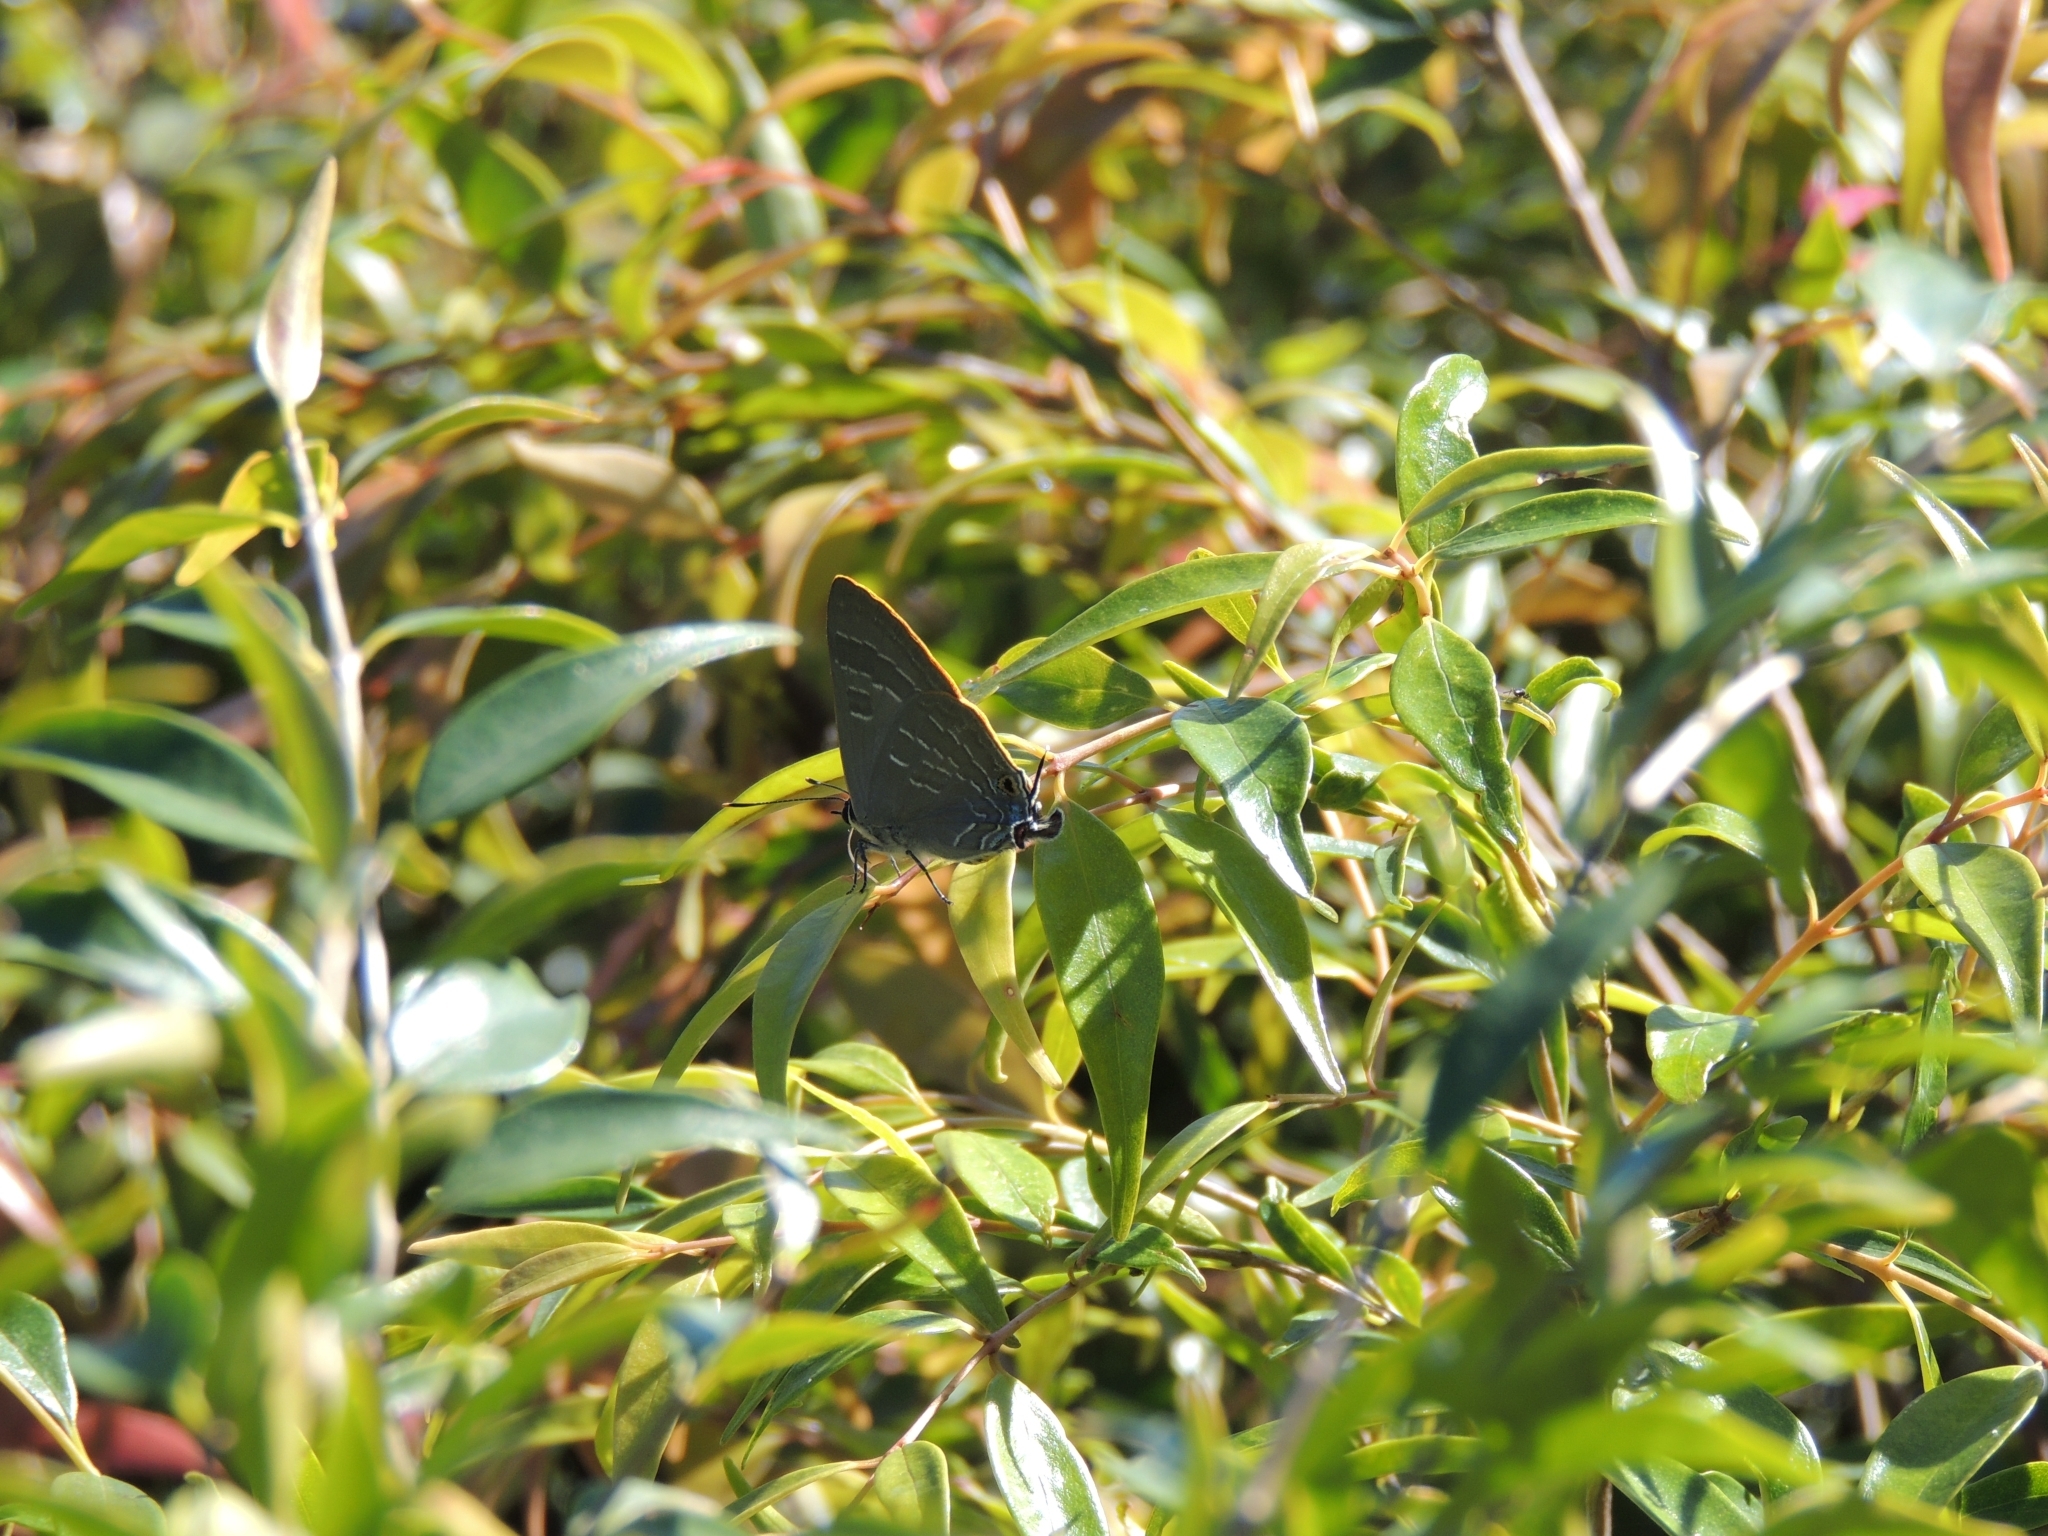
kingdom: Animalia
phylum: Arthropoda
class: Insecta
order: Lepidoptera
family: Lycaenidae
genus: Deudorix
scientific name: Deudorix diovis
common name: Bright cornelian
